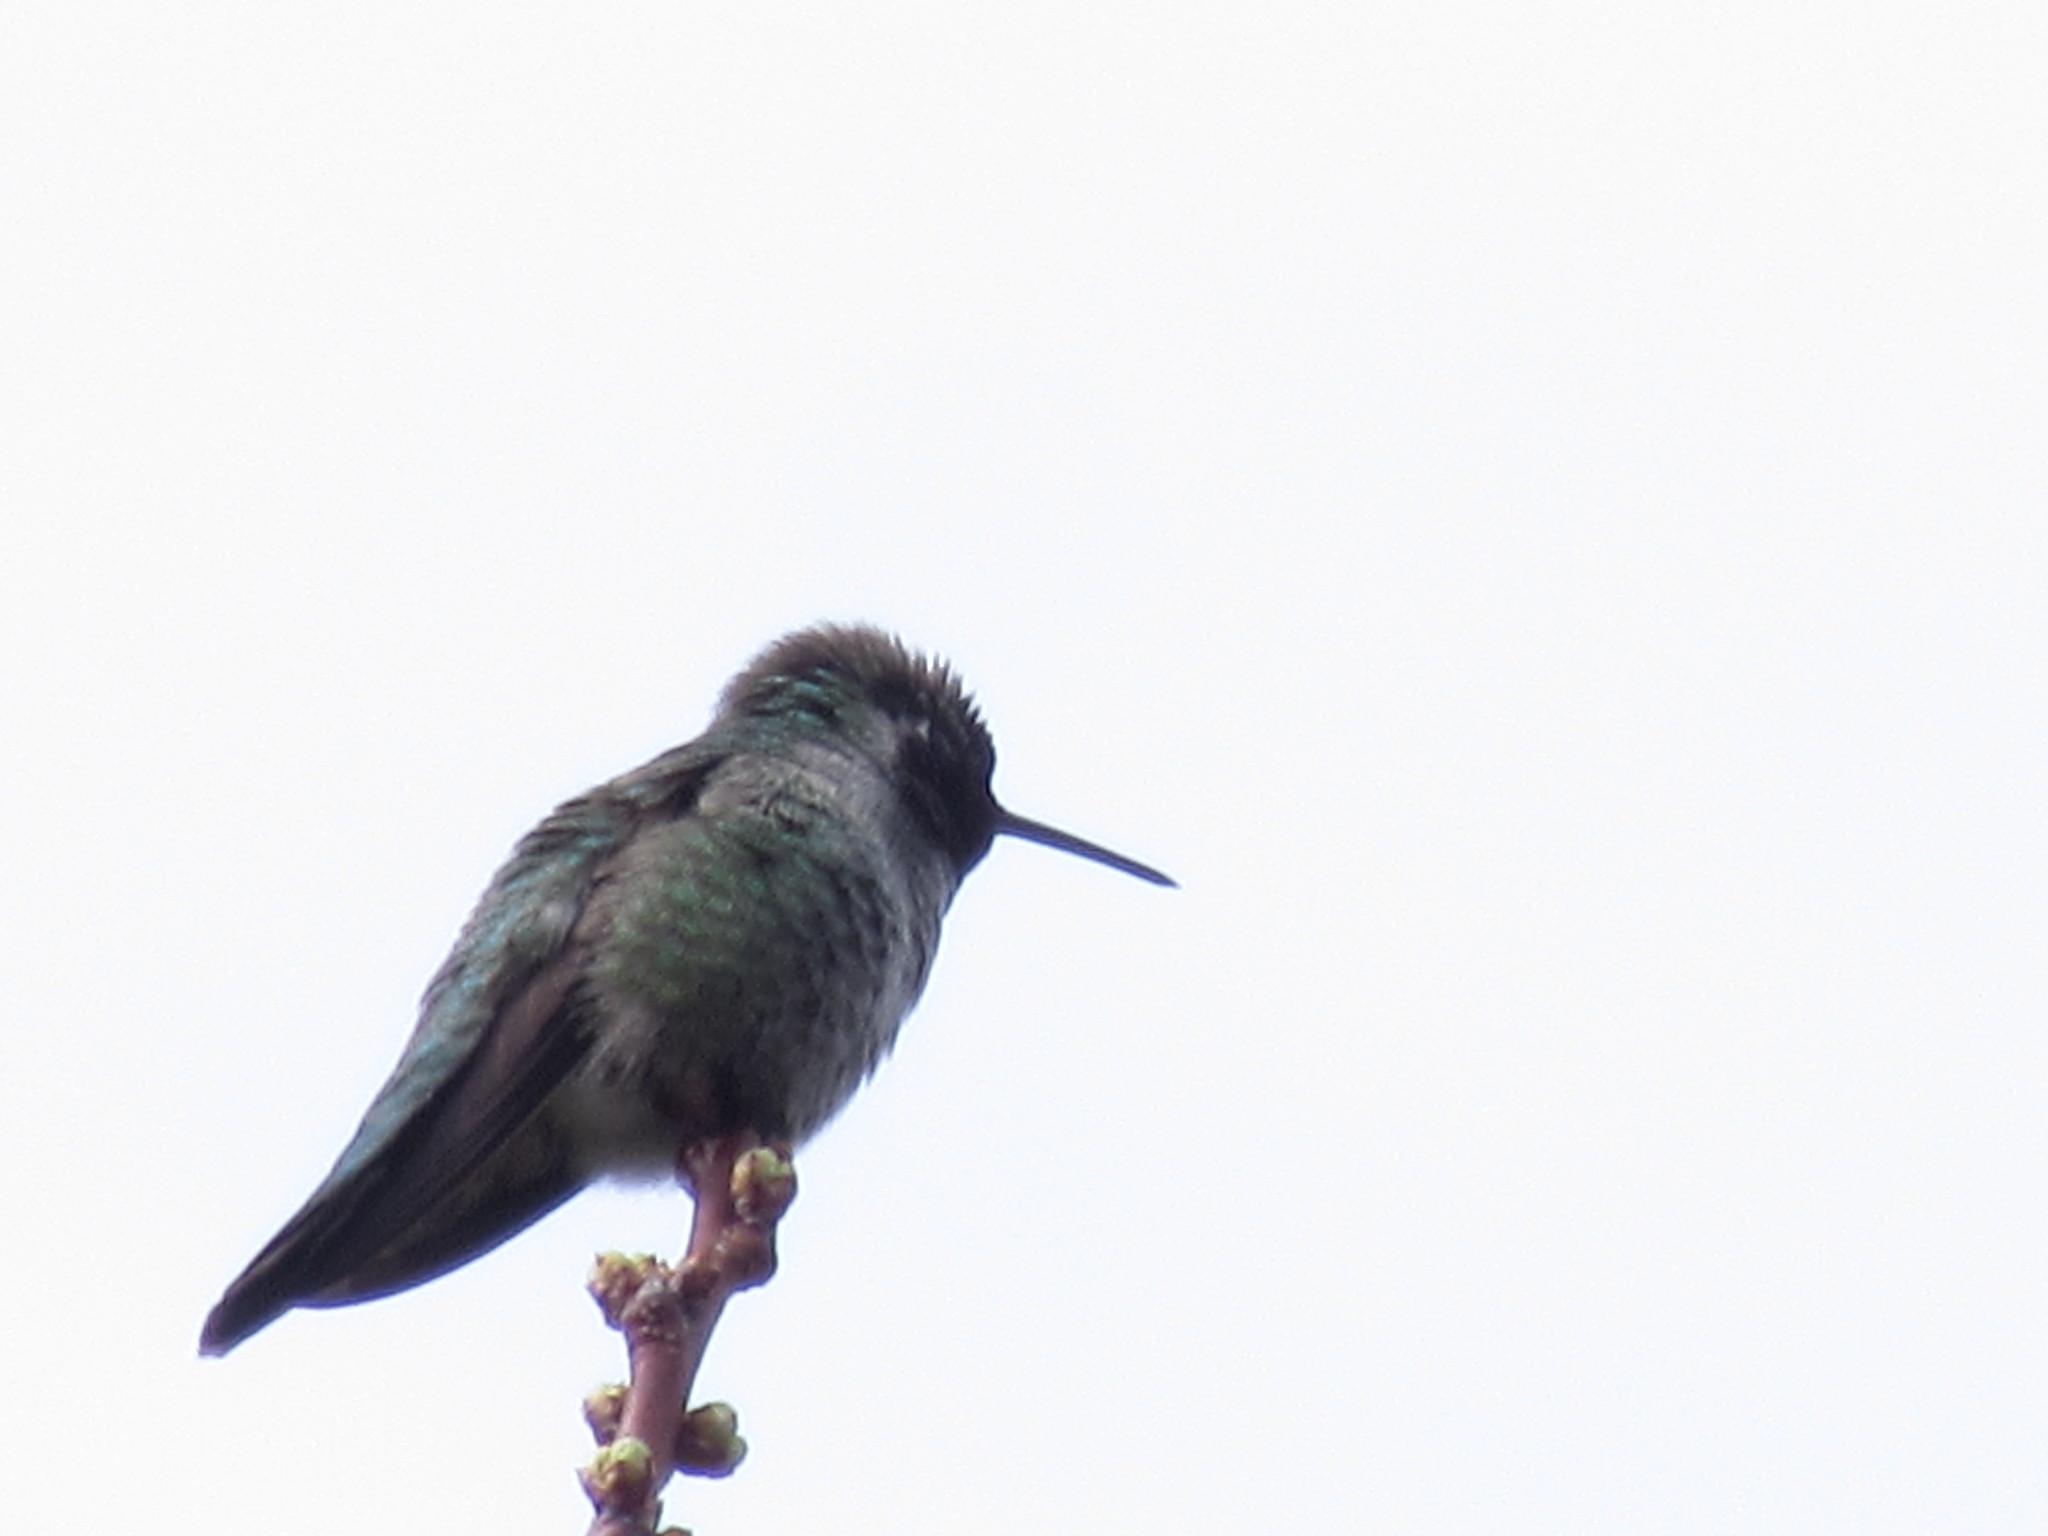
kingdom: Animalia
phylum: Chordata
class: Aves
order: Apodiformes
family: Trochilidae
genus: Calypte
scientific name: Calypte anna
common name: Anna's hummingbird
